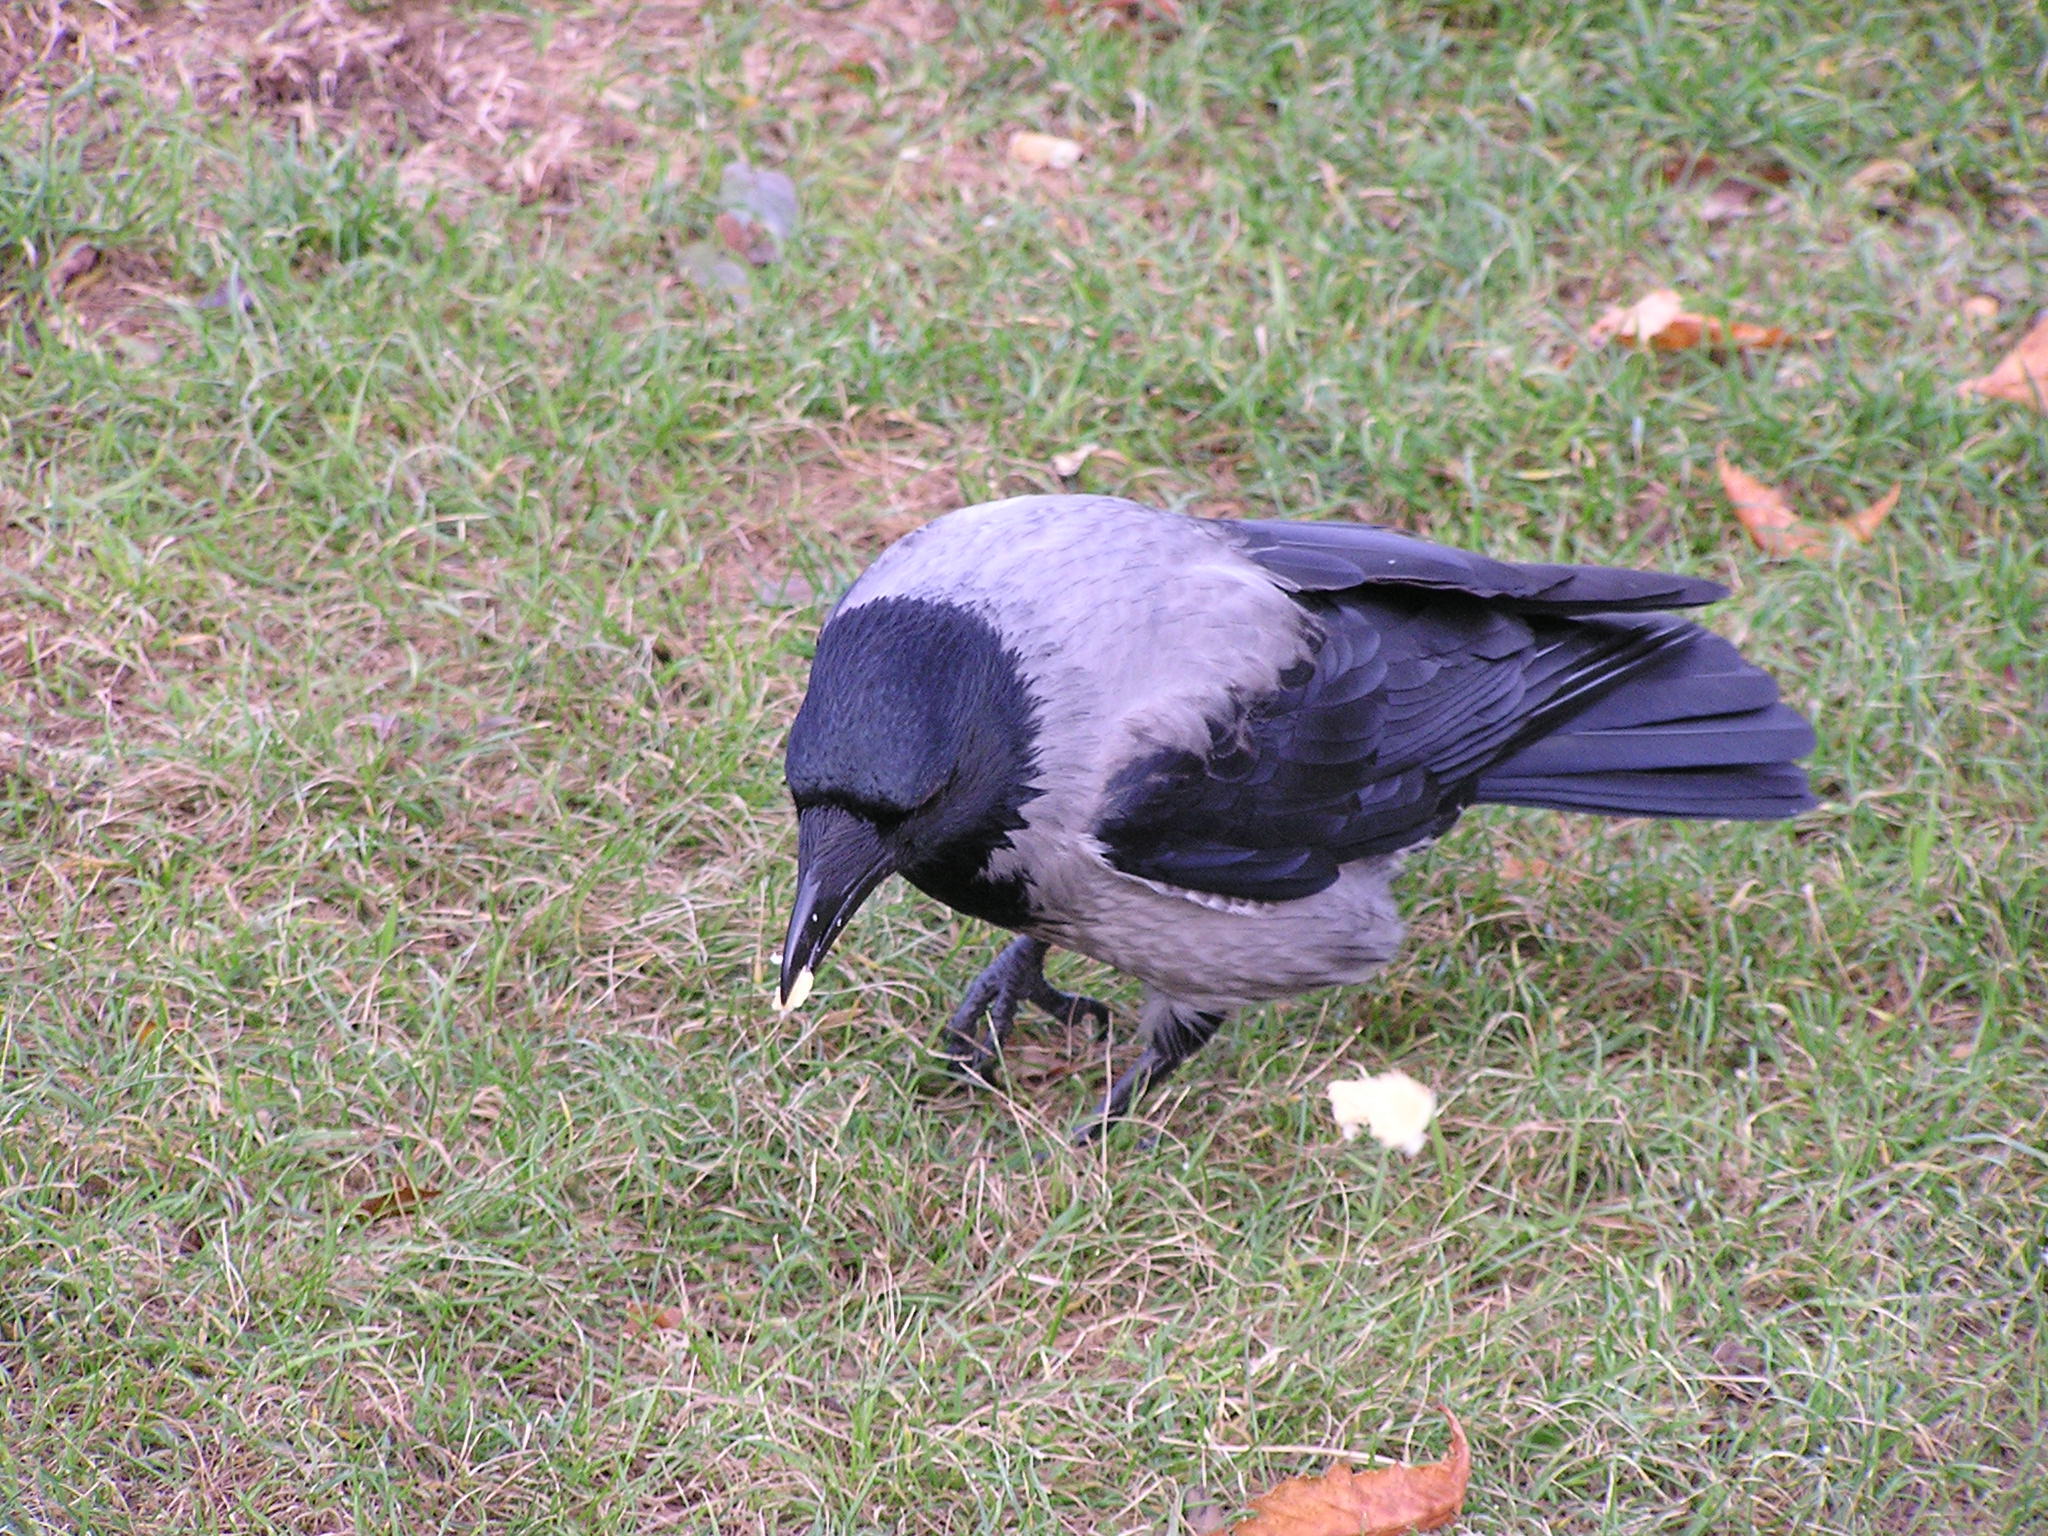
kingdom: Animalia
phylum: Chordata
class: Aves
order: Passeriformes
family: Corvidae
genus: Corvus
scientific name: Corvus cornix
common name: Hooded crow
